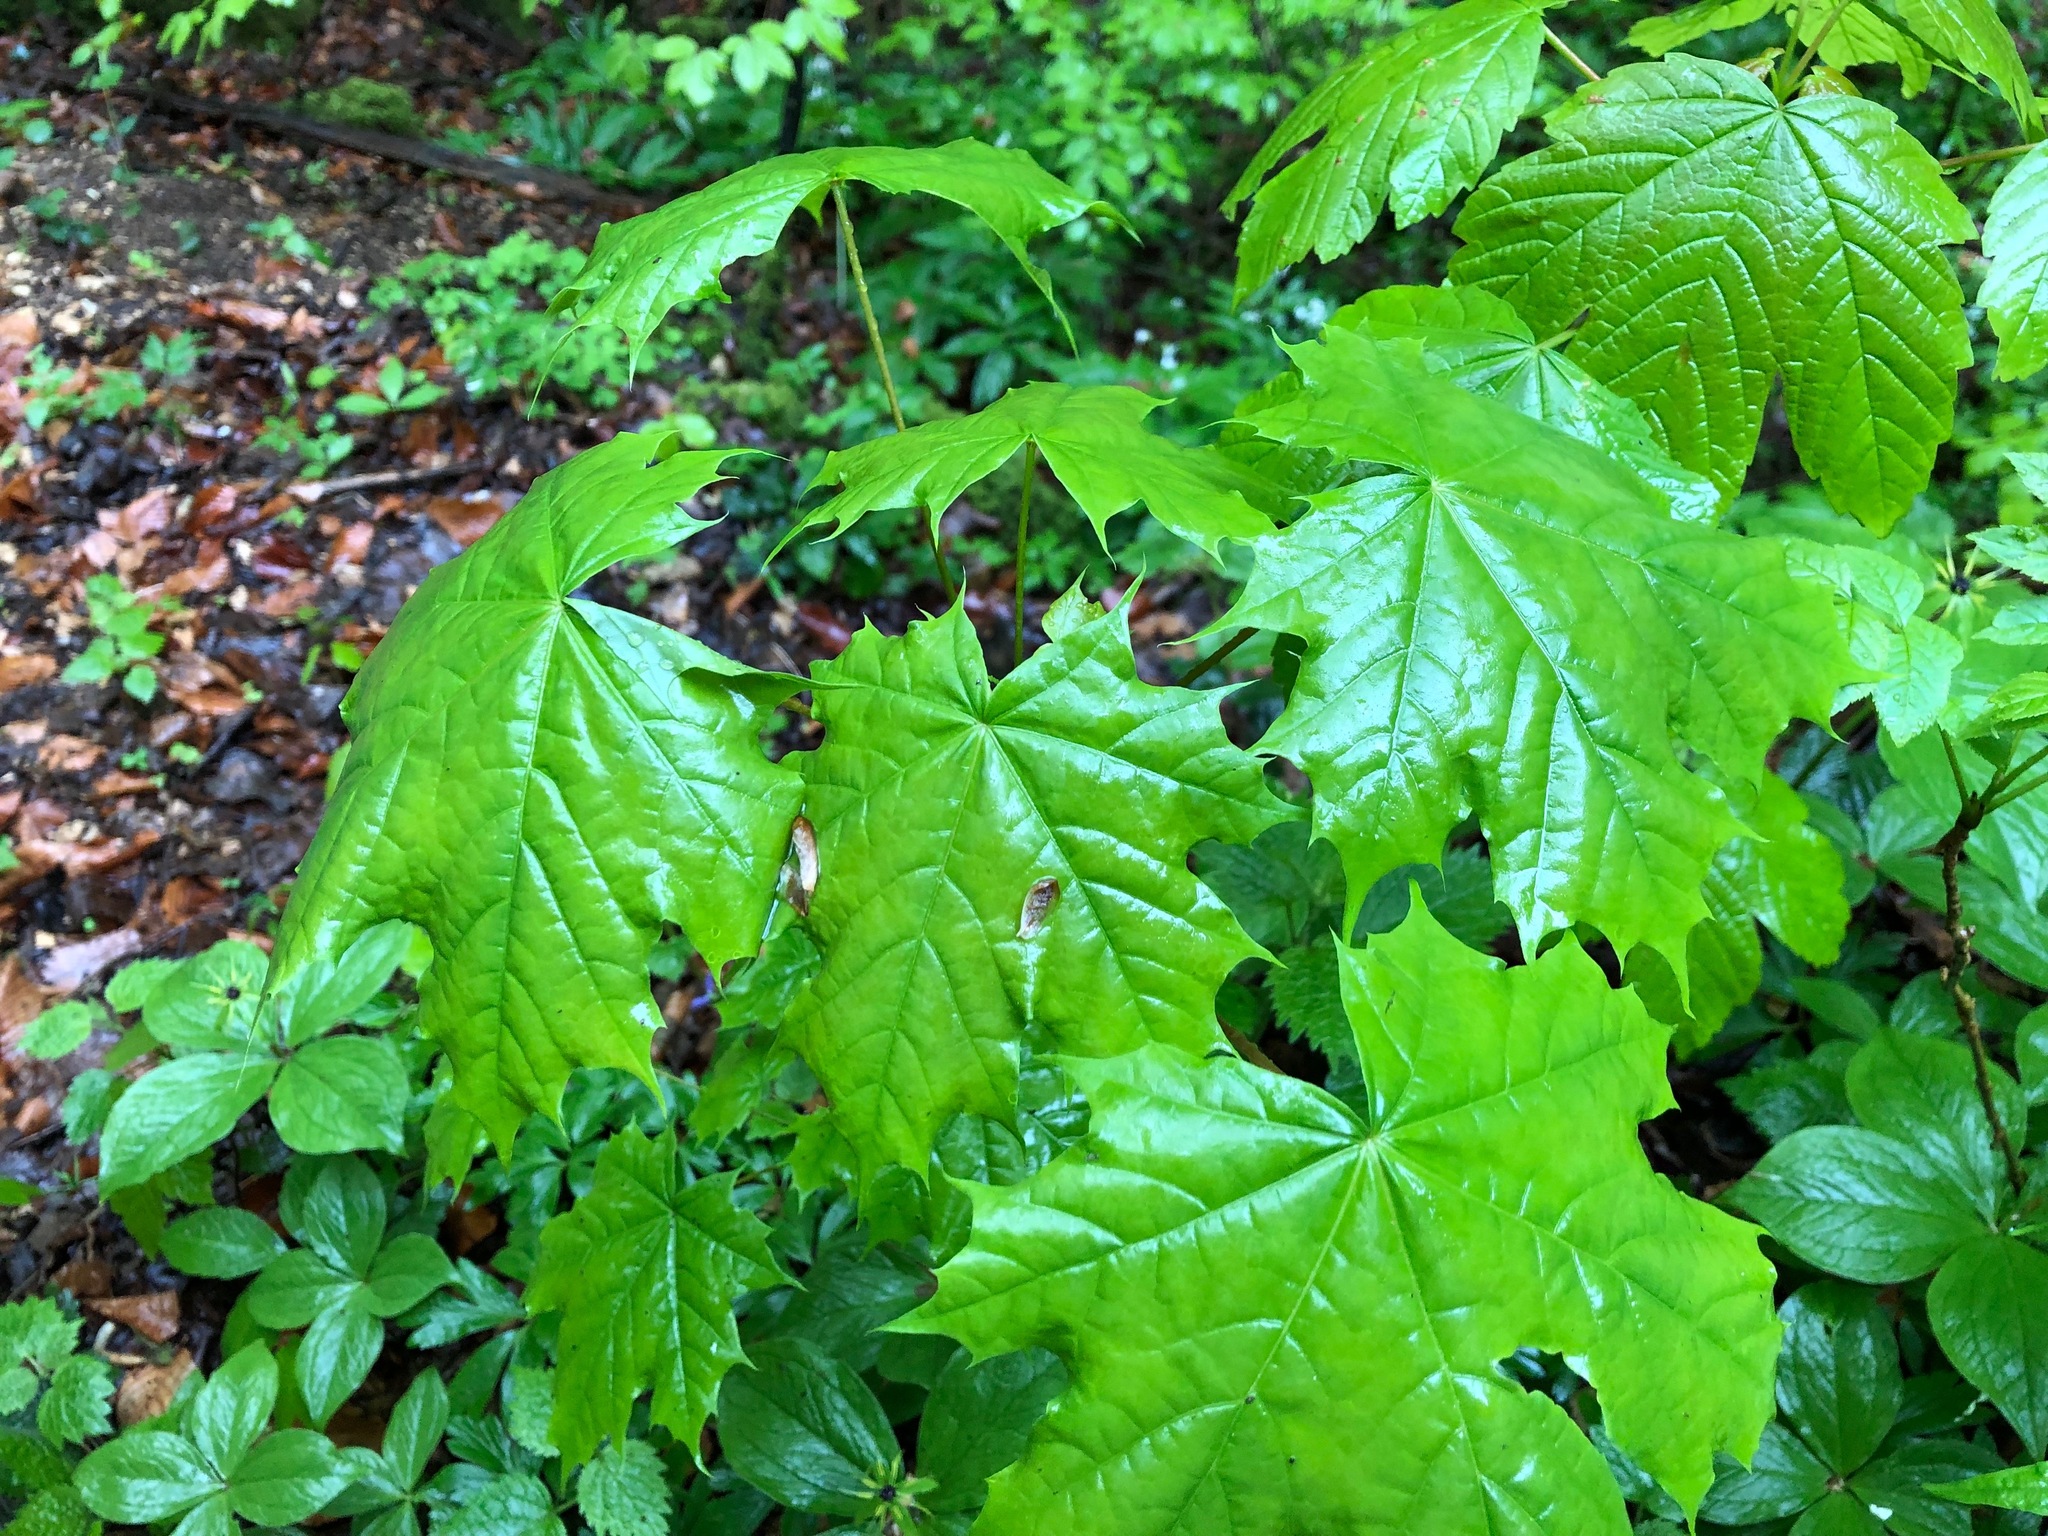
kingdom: Plantae
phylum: Tracheophyta
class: Magnoliopsida
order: Sapindales
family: Sapindaceae
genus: Acer
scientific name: Acer platanoides
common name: Norway maple
